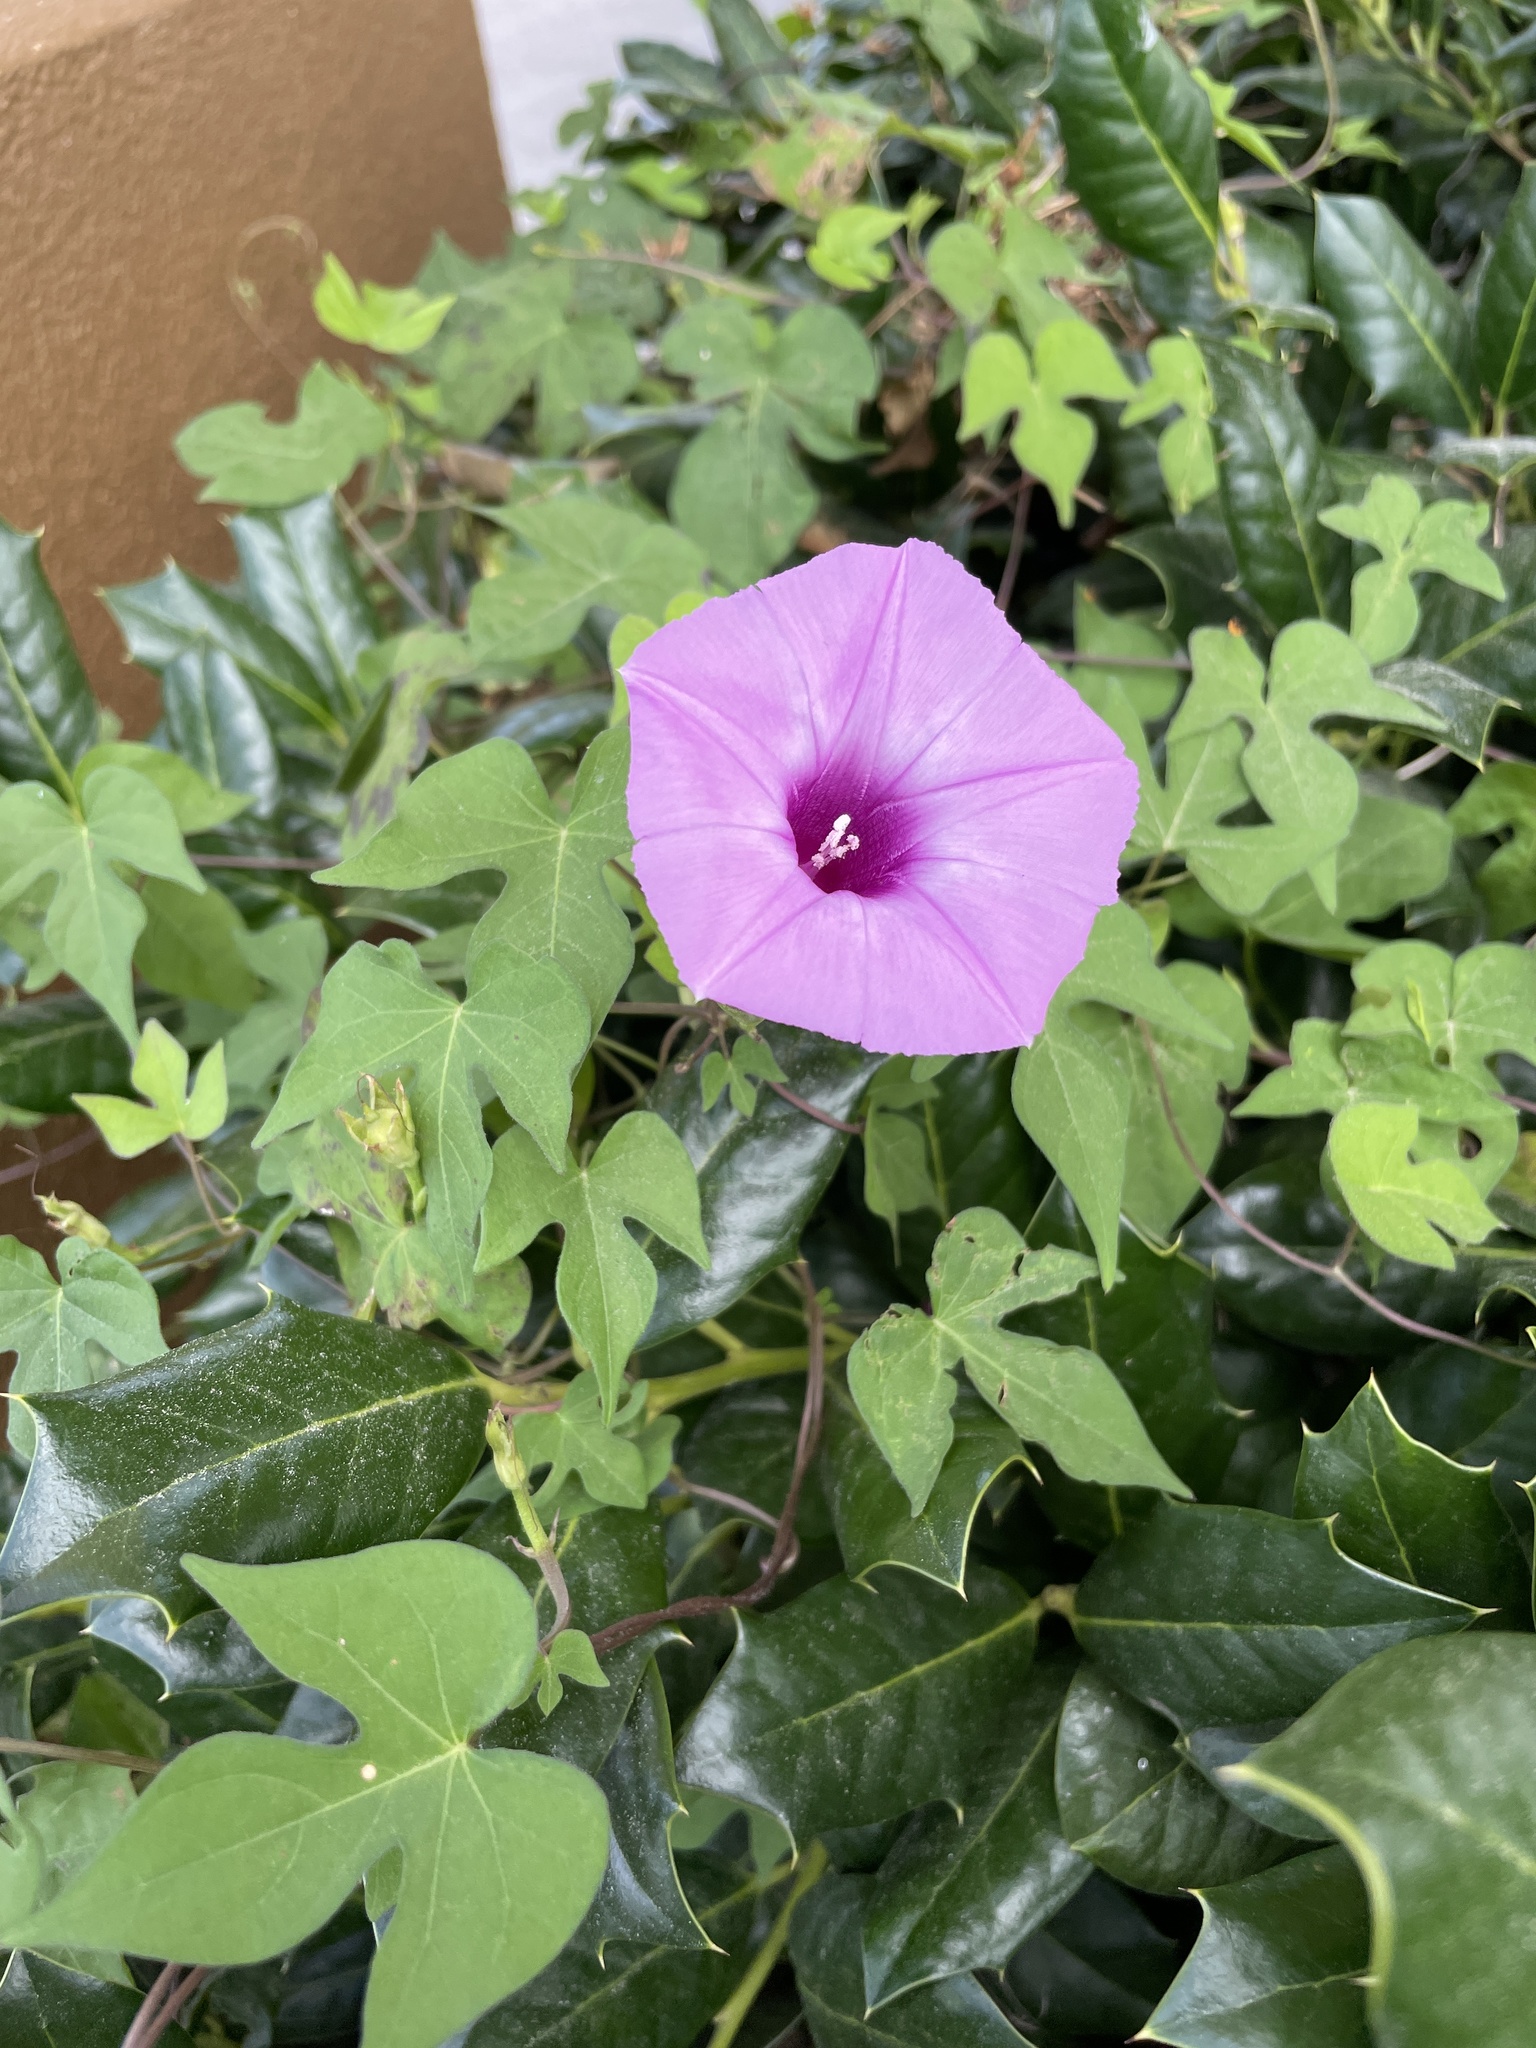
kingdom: Plantae
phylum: Tracheophyta
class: Magnoliopsida
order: Solanales
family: Convolvulaceae
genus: Ipomoea
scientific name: Ipomoea cordatotriloba
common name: Cotton morning glory
